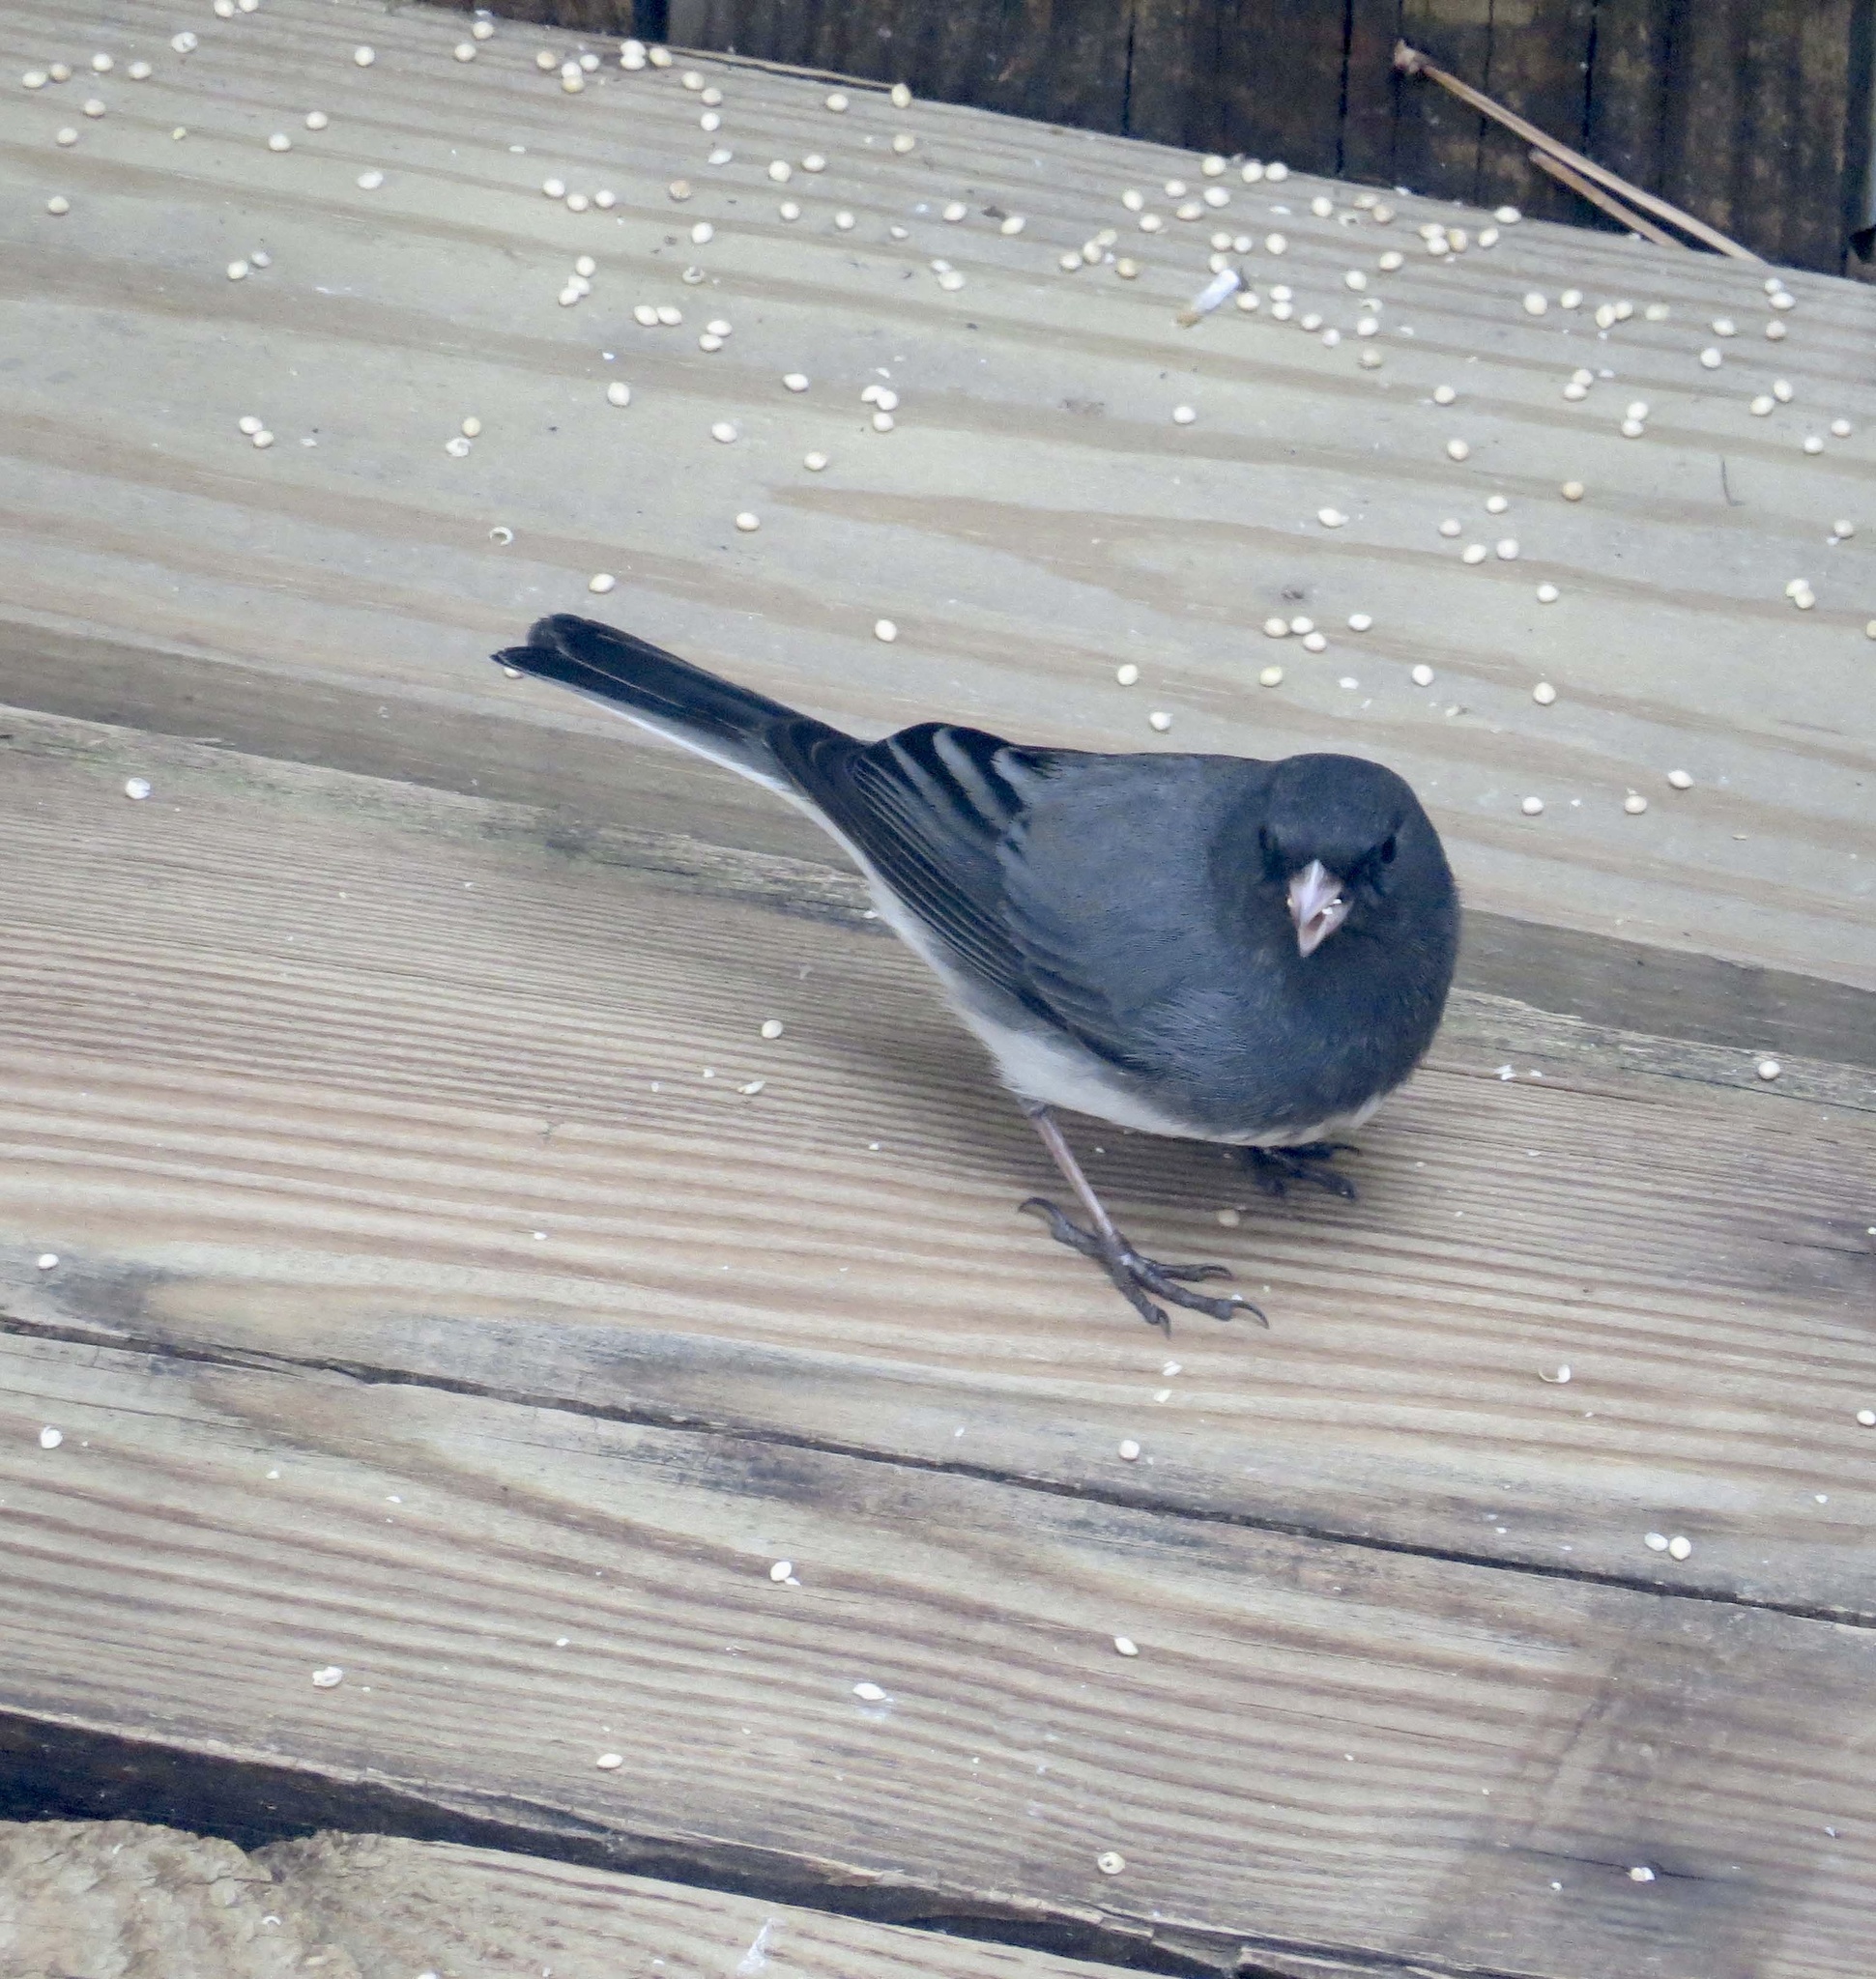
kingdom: Animalia
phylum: Chordata
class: Aves
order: Passeriformes
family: Passerellidae
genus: Junco
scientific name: Junco hyemalis
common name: Dark-eyed junco
